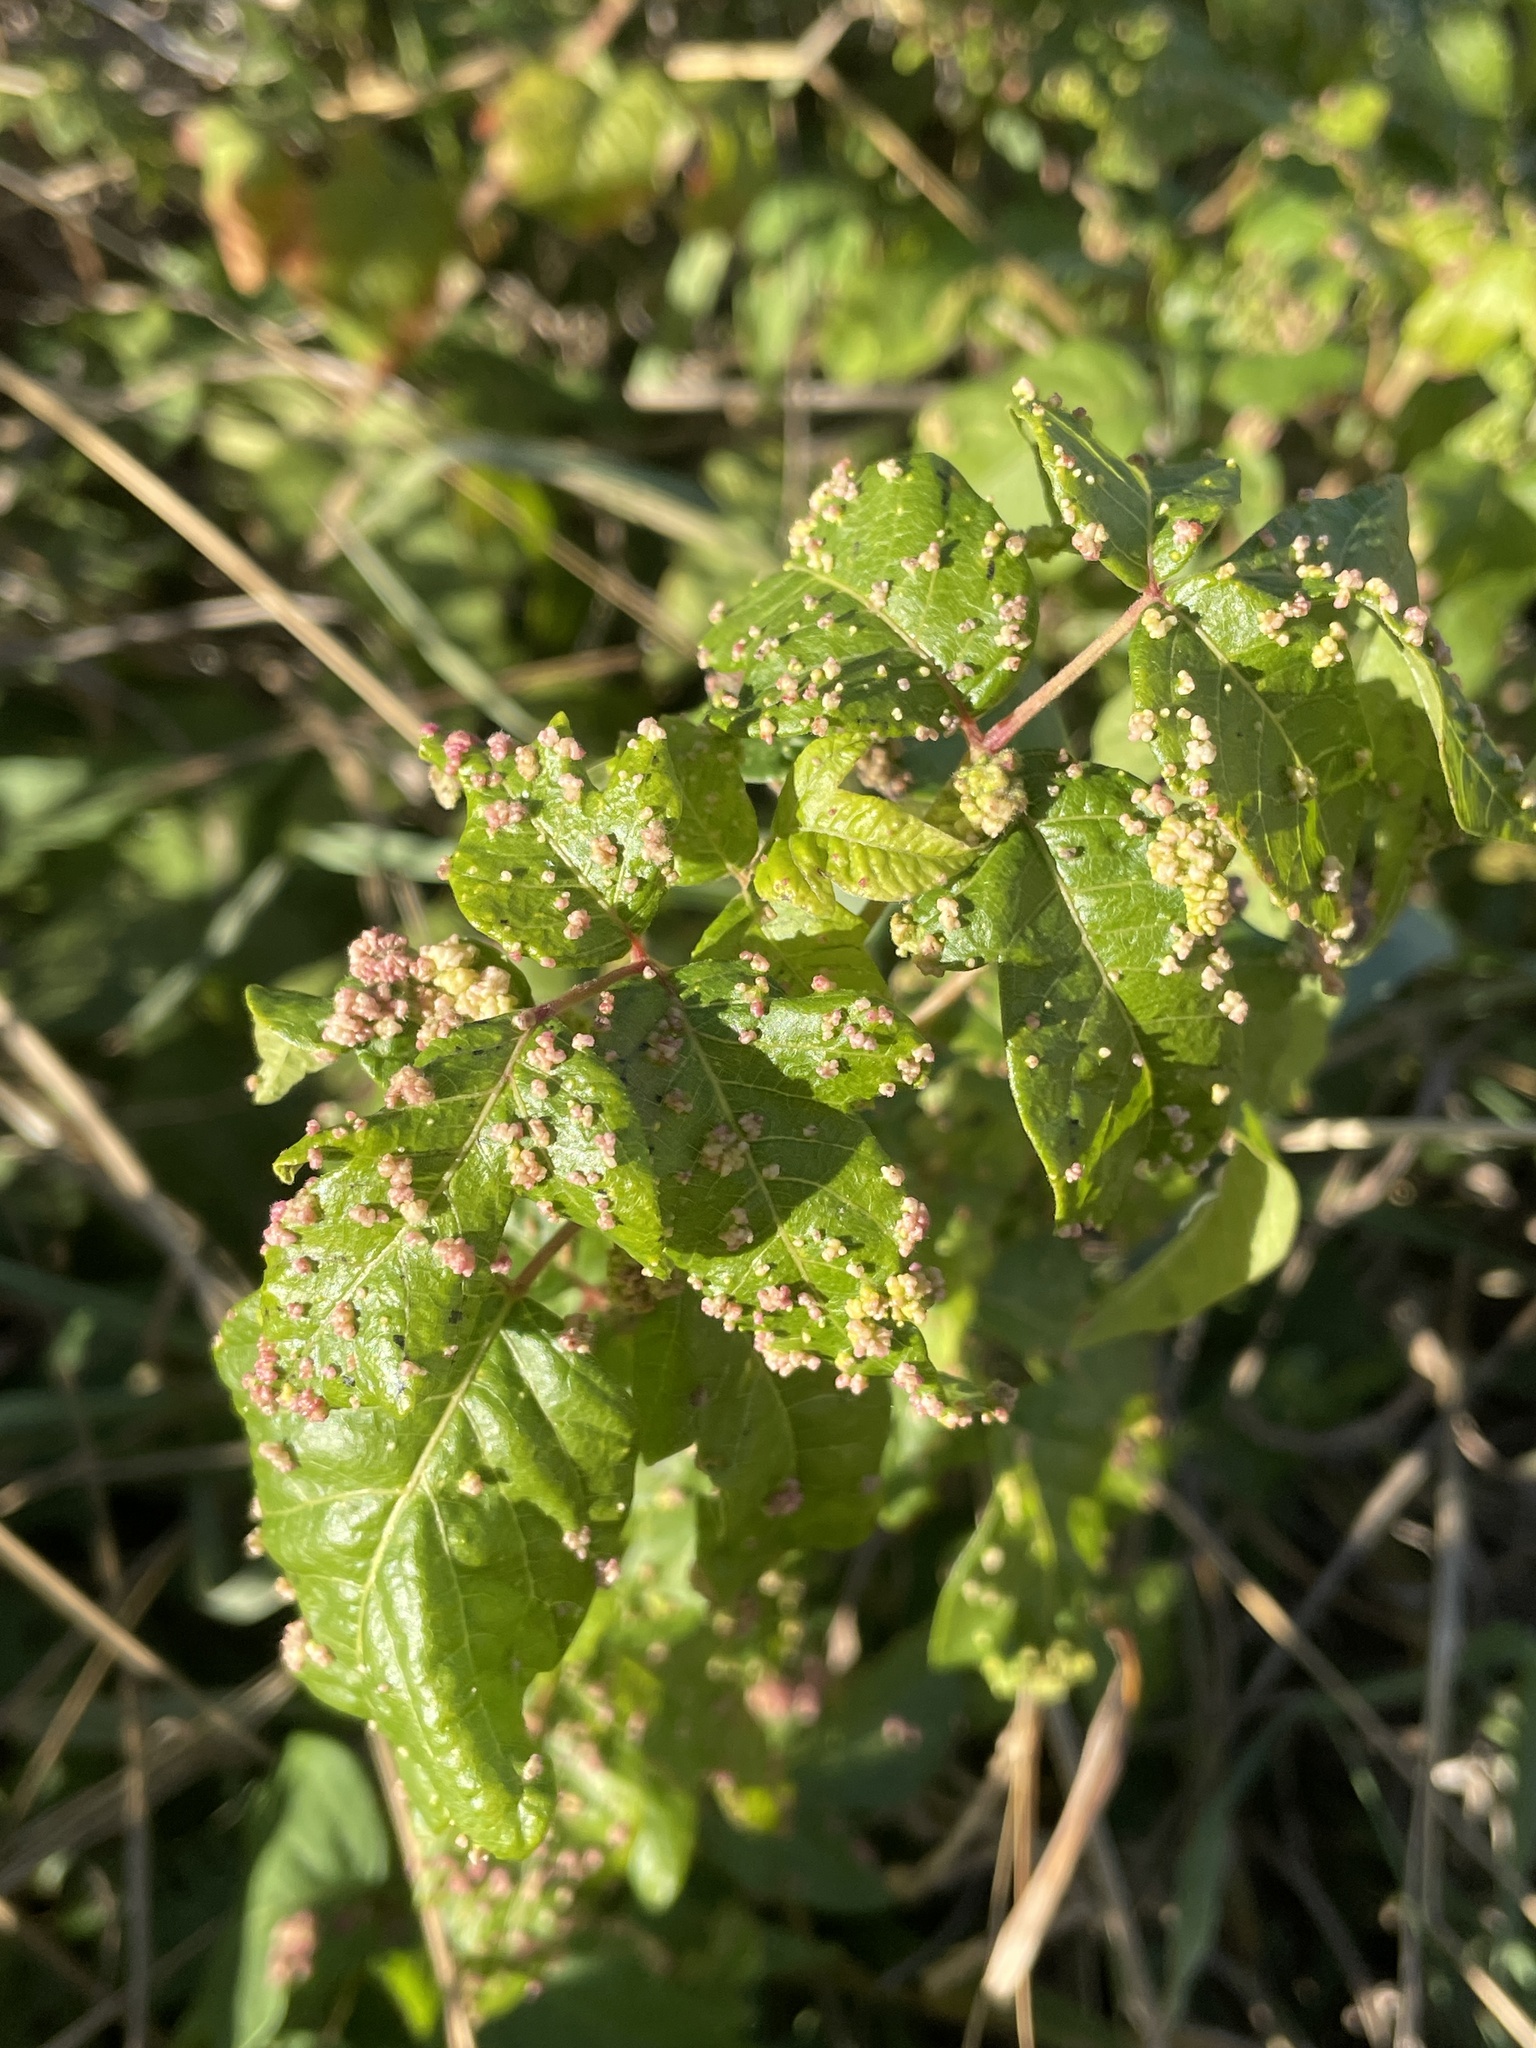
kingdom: Animalia
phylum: Arthropoda
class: Arachnida
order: Trombidiformes
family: Eriophyidae
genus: Aculops
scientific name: Aculops
